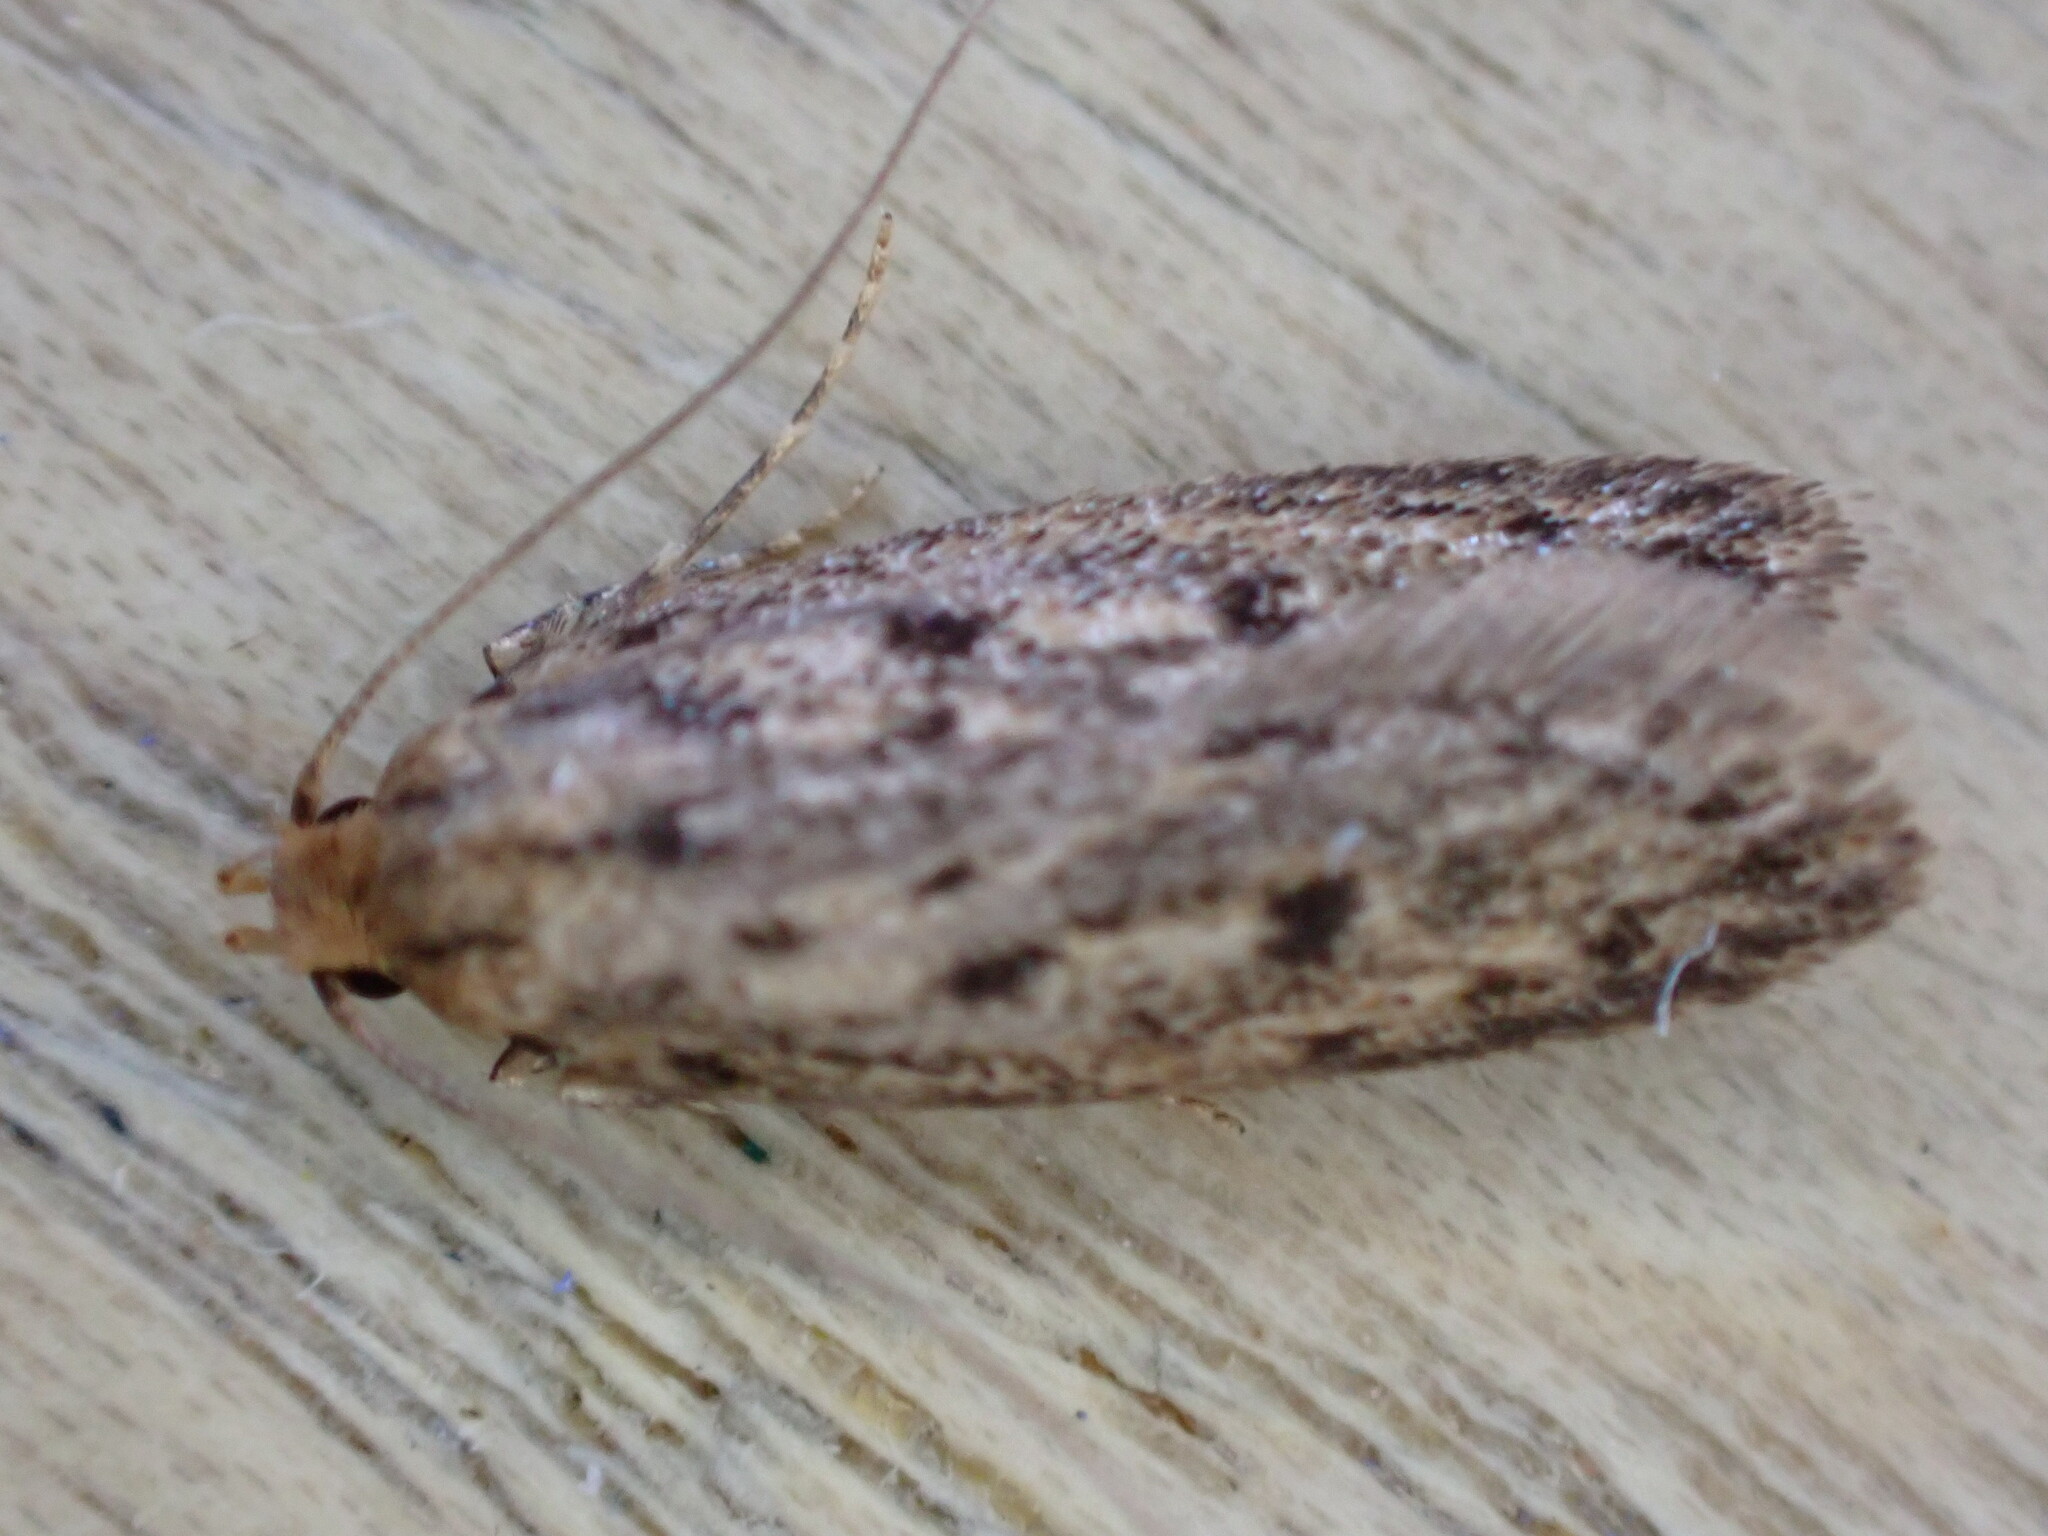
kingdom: Animalia
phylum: Arthropoda
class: Insecta
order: Lepidoptera
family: Oecophoridae
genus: Hofmannophila
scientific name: Hofmannophila pseudospretella
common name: Brown house moth
